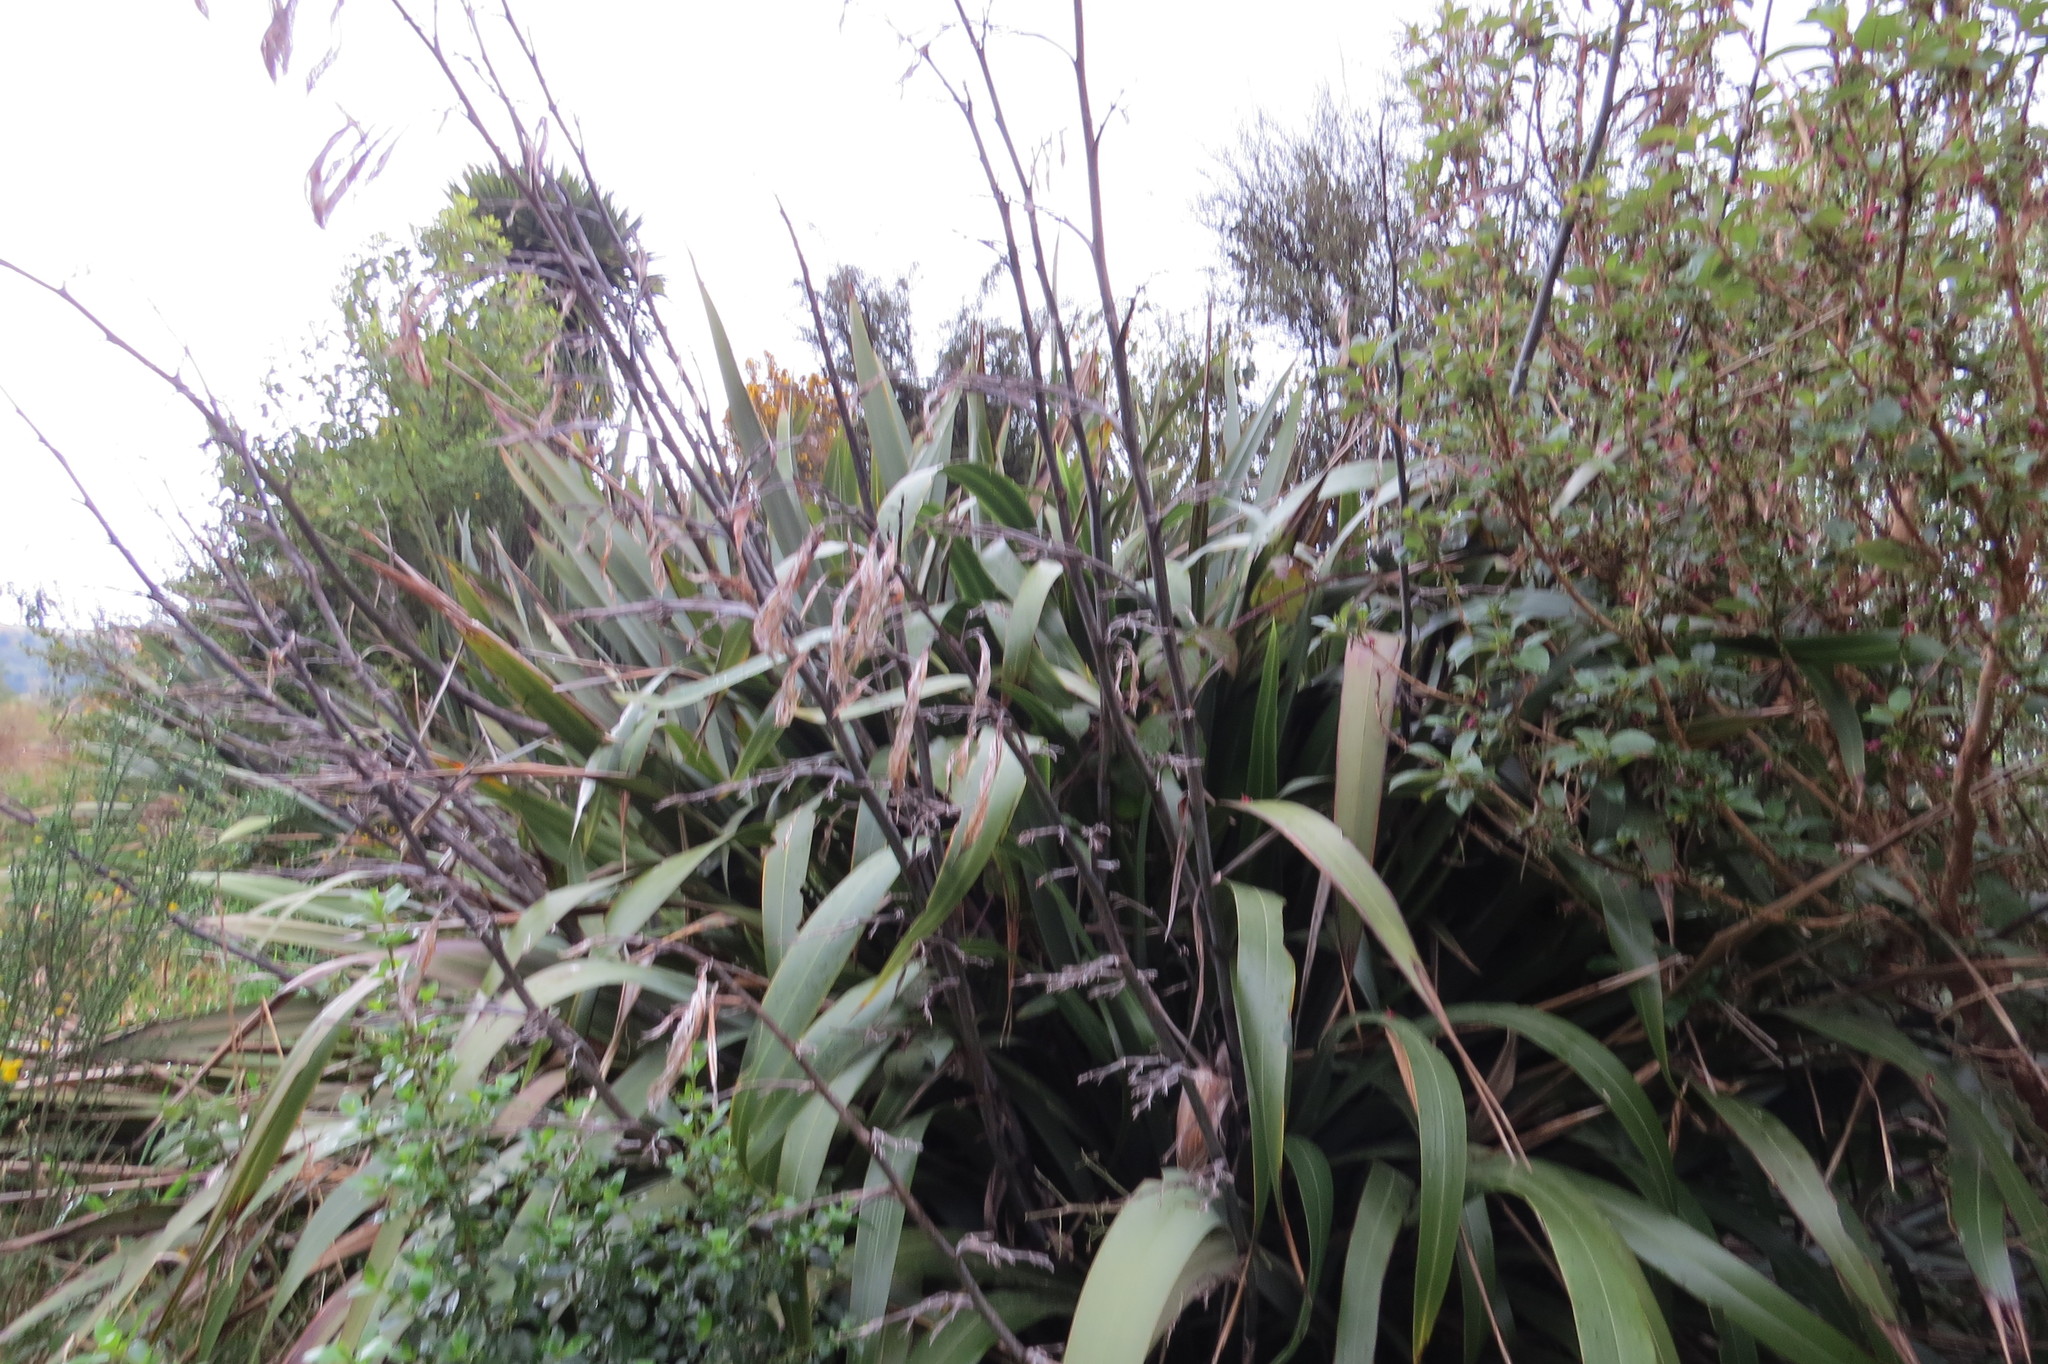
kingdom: Plantae
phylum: Tracheophyta
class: Liliopsida
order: Asparagales
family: Asphodelaceae
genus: Phormium
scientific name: Phormium colensoi
